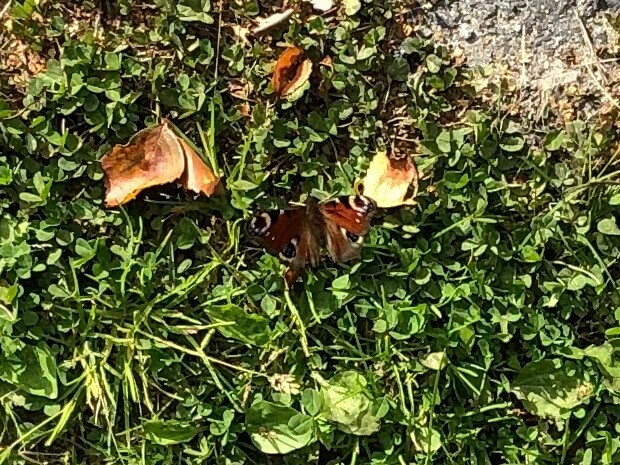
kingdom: Animalia
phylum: Arthropoda
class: Insecta
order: Lepidoptera
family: Nymphalidae
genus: Aglais
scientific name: Aglais io
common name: Peacock
